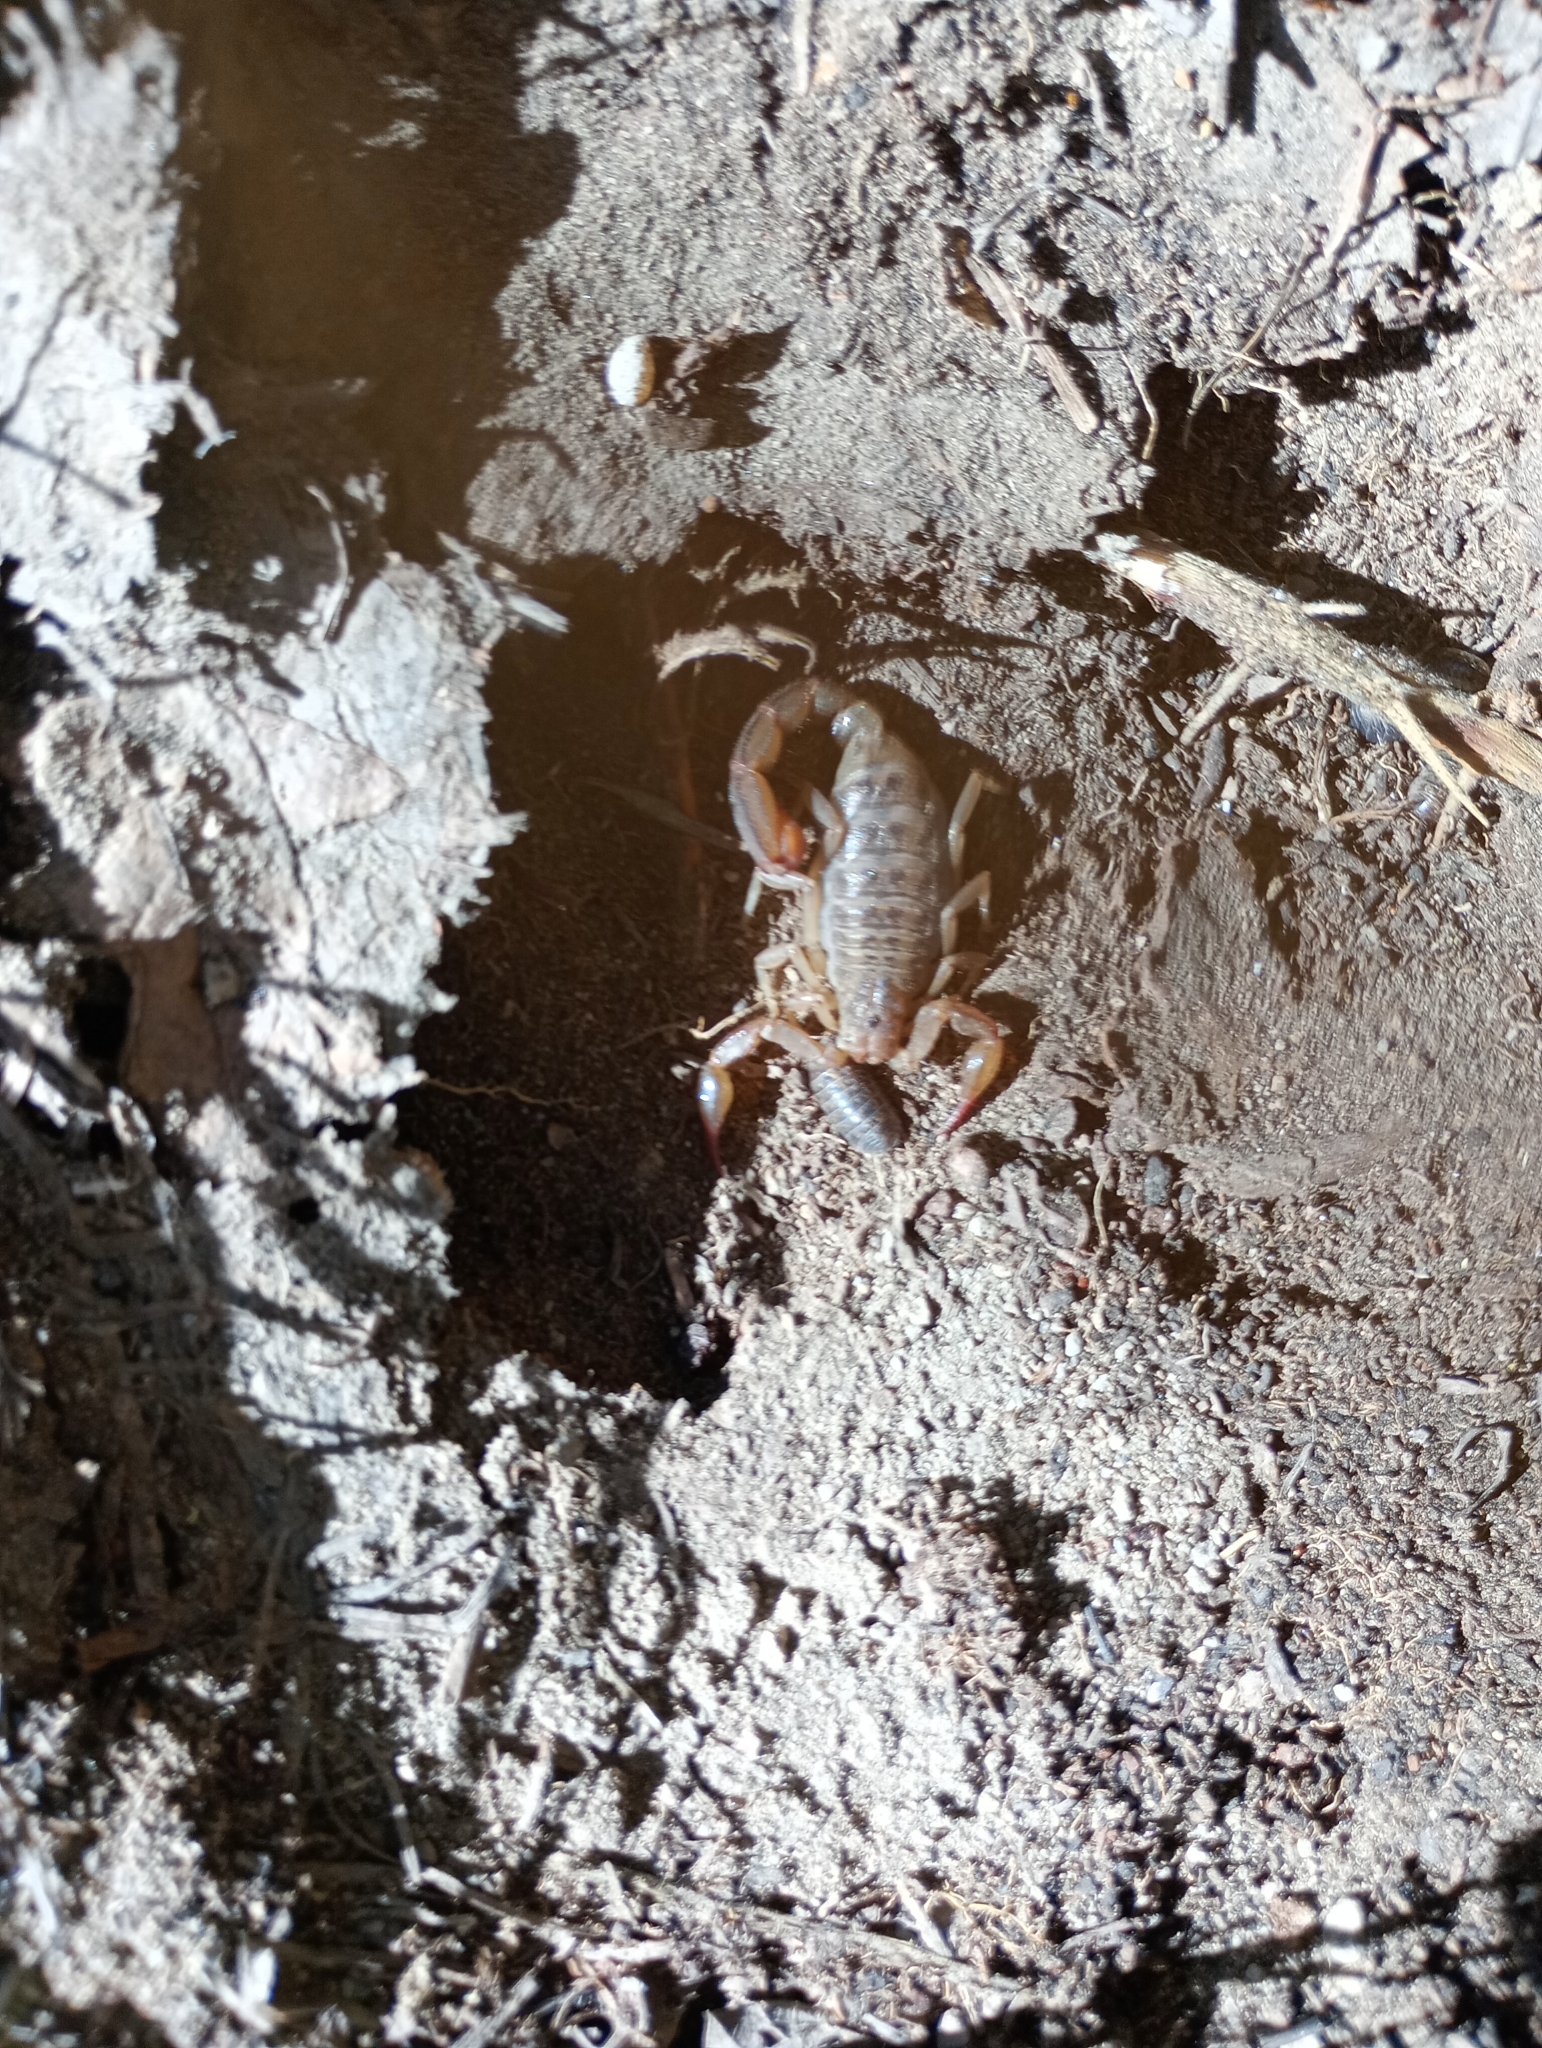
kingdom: Animalia
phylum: Arthropoda
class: Arachnida
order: Scorpiones
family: Vaejovidae
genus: Mesomexovis
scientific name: Mesomexovis punctatus
